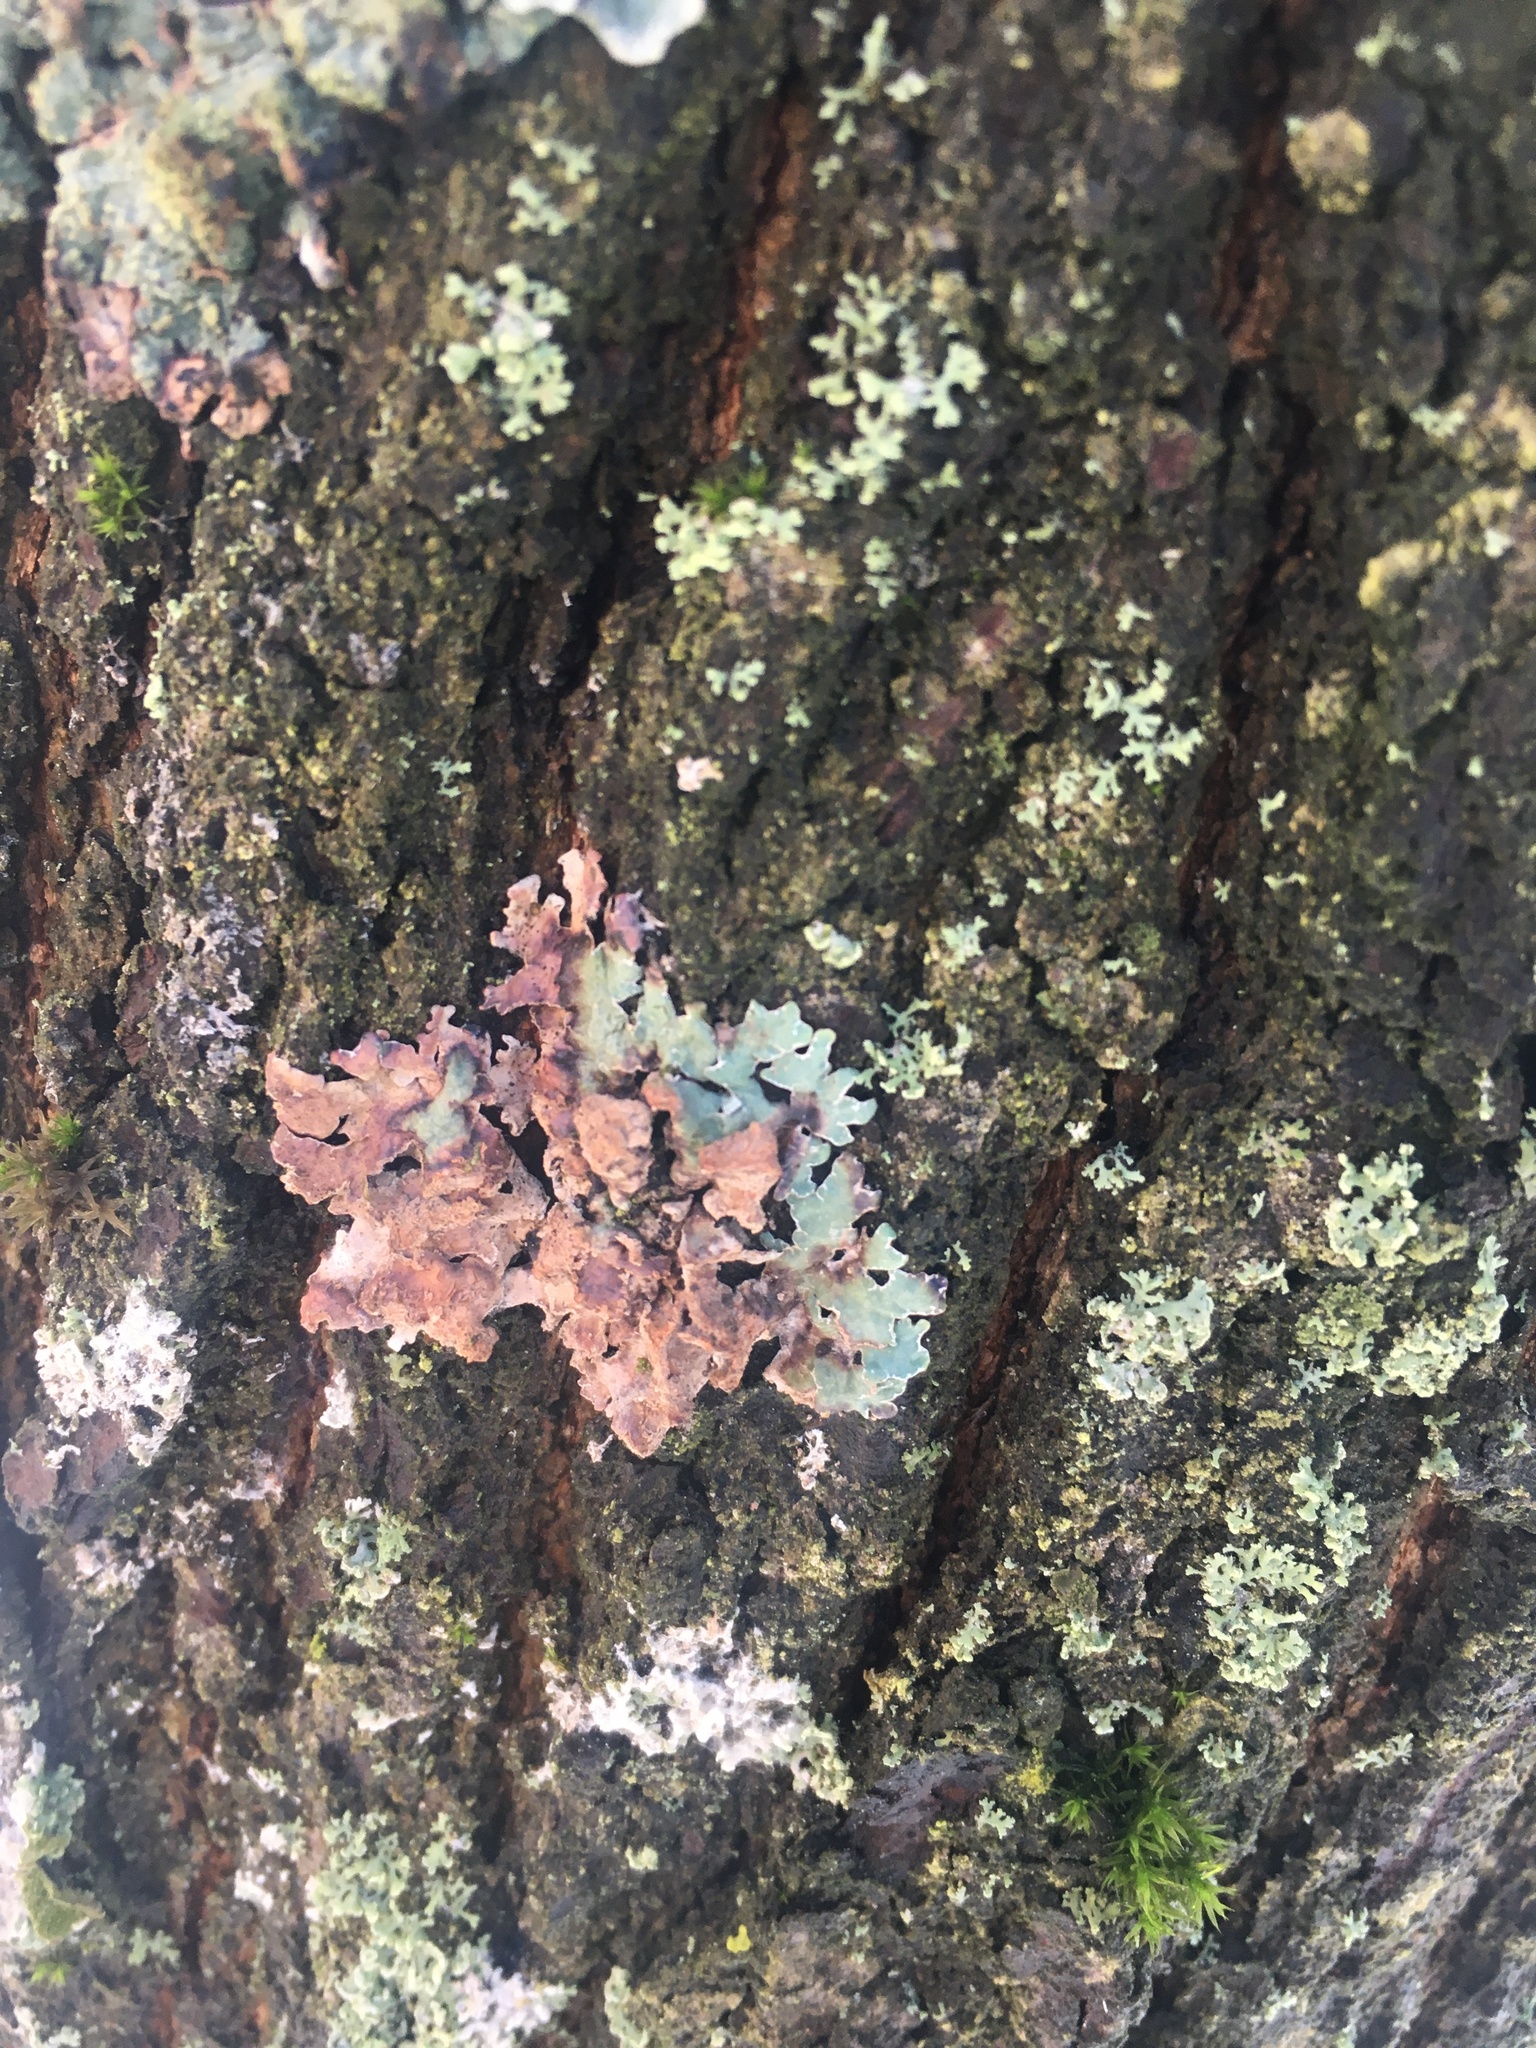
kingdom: Fungi
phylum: Ascomycota
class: Lecanoromycetes
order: Lecanorales
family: Parmeliaceae
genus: Parmelia
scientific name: Parmelia sulcata
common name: Netted shield lichen
